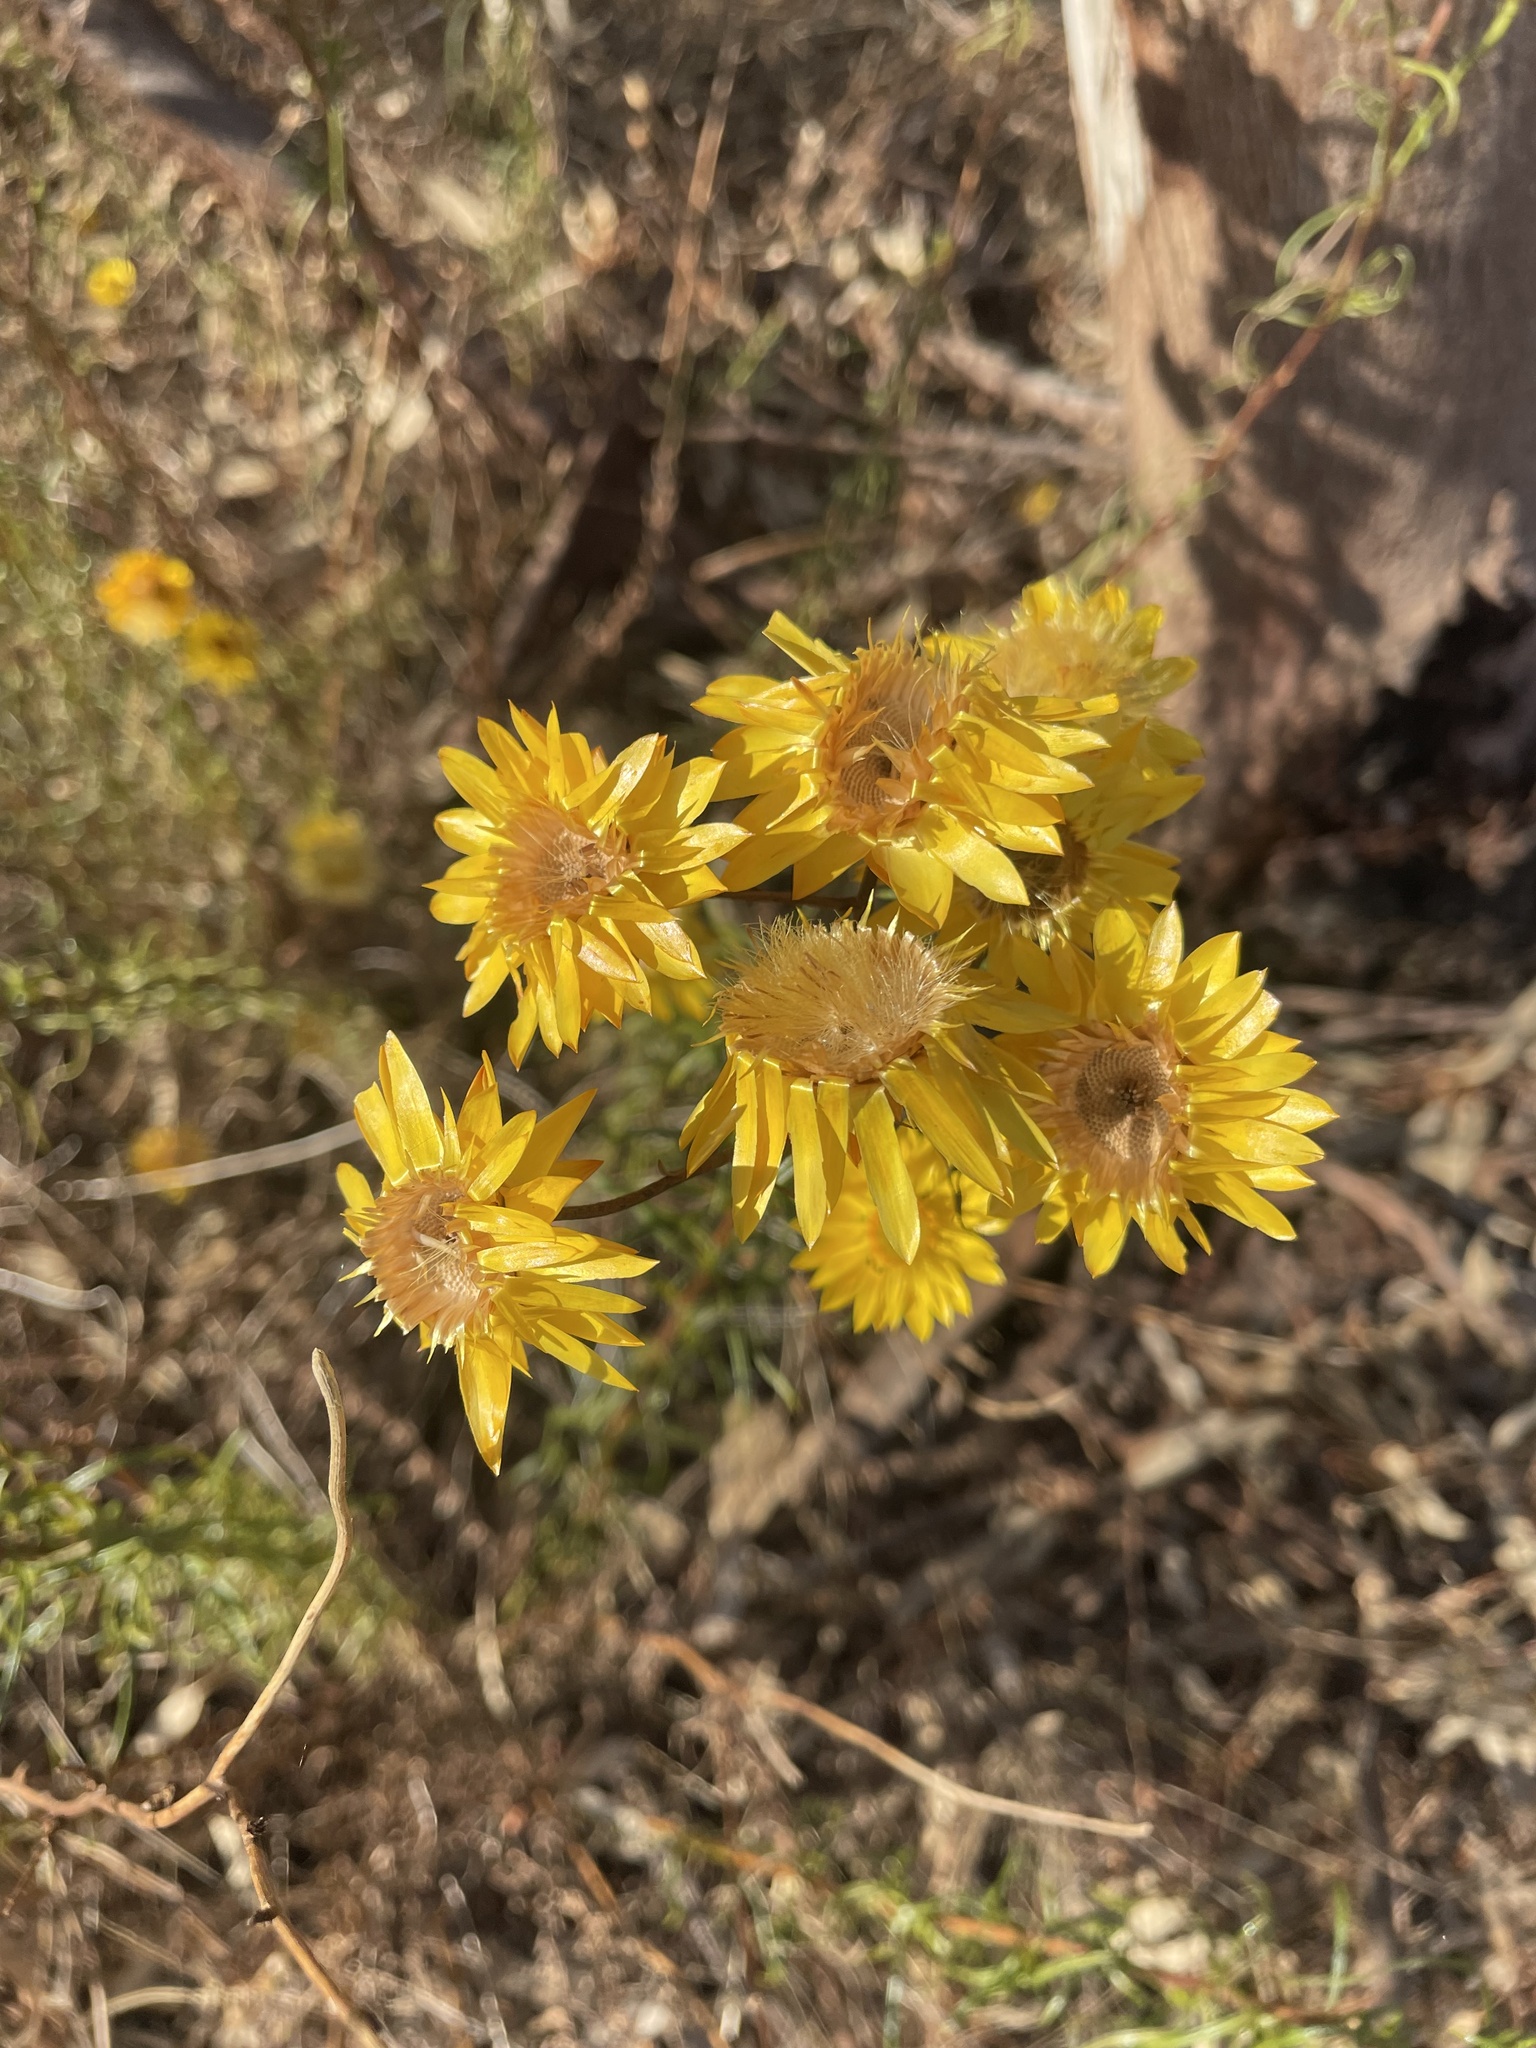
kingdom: Plantae
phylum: Tracheophyta
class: Magnoliopsida
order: Asterales
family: Asteraceae
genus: Xerochrysum
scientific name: Xerochrysum viscosum
